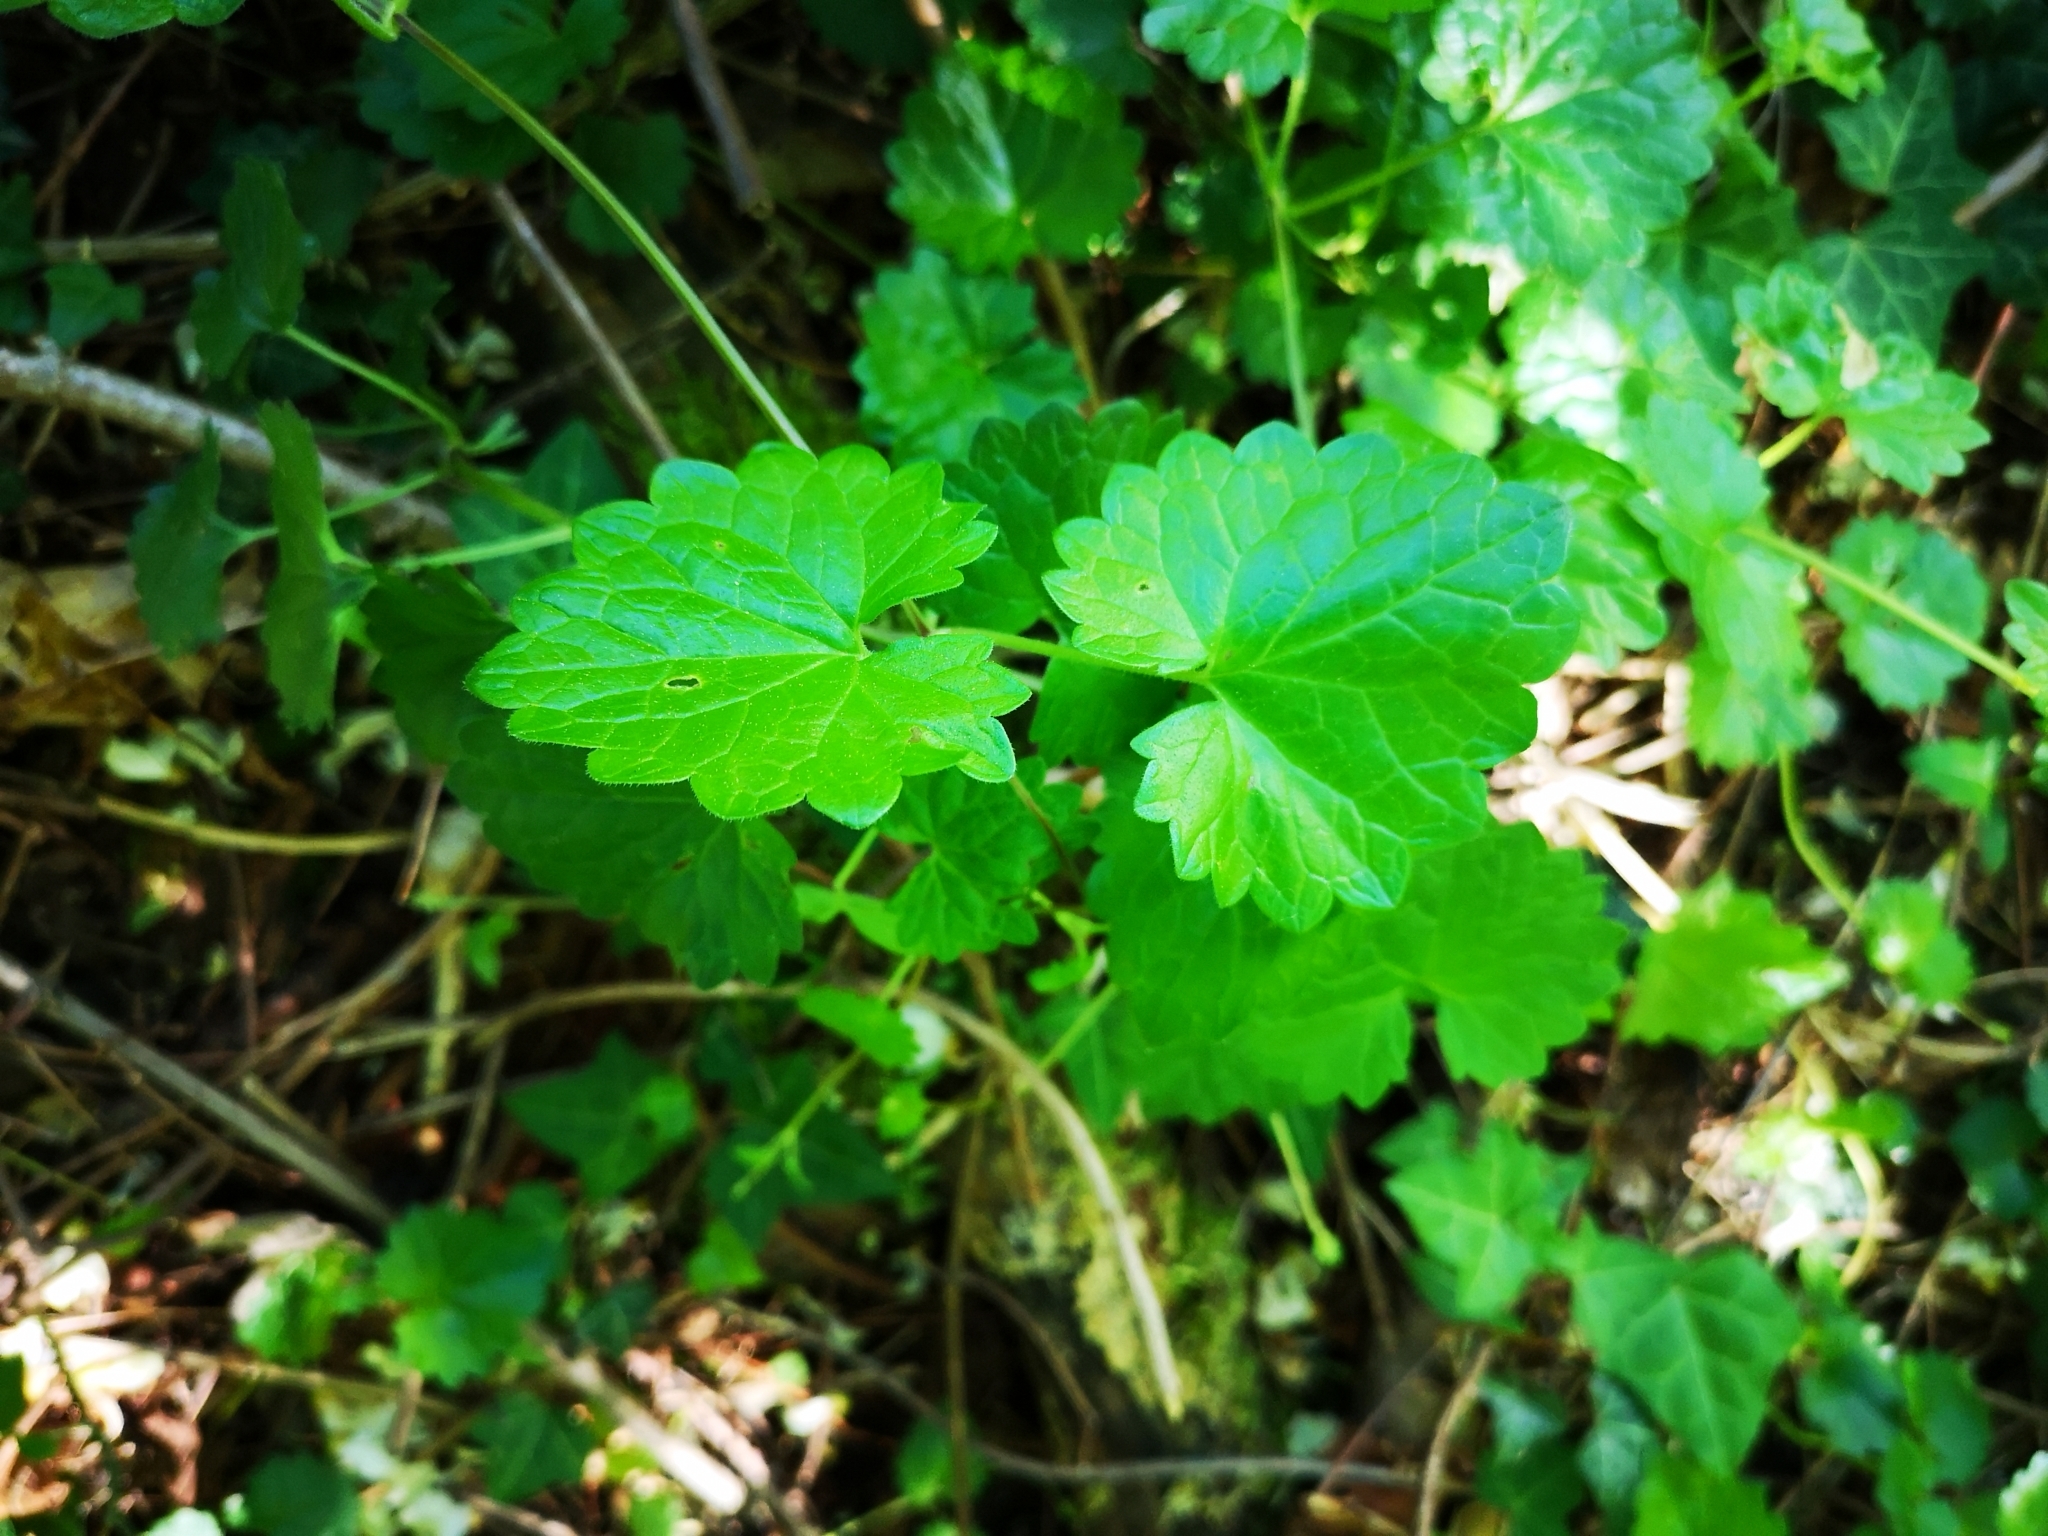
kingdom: Plantae
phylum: Tracheophyta
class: Magnoliopsida
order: Lamiales
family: Lamiaceae
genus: Glechoma
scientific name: Glechoma hederacea
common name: Ground ivy
